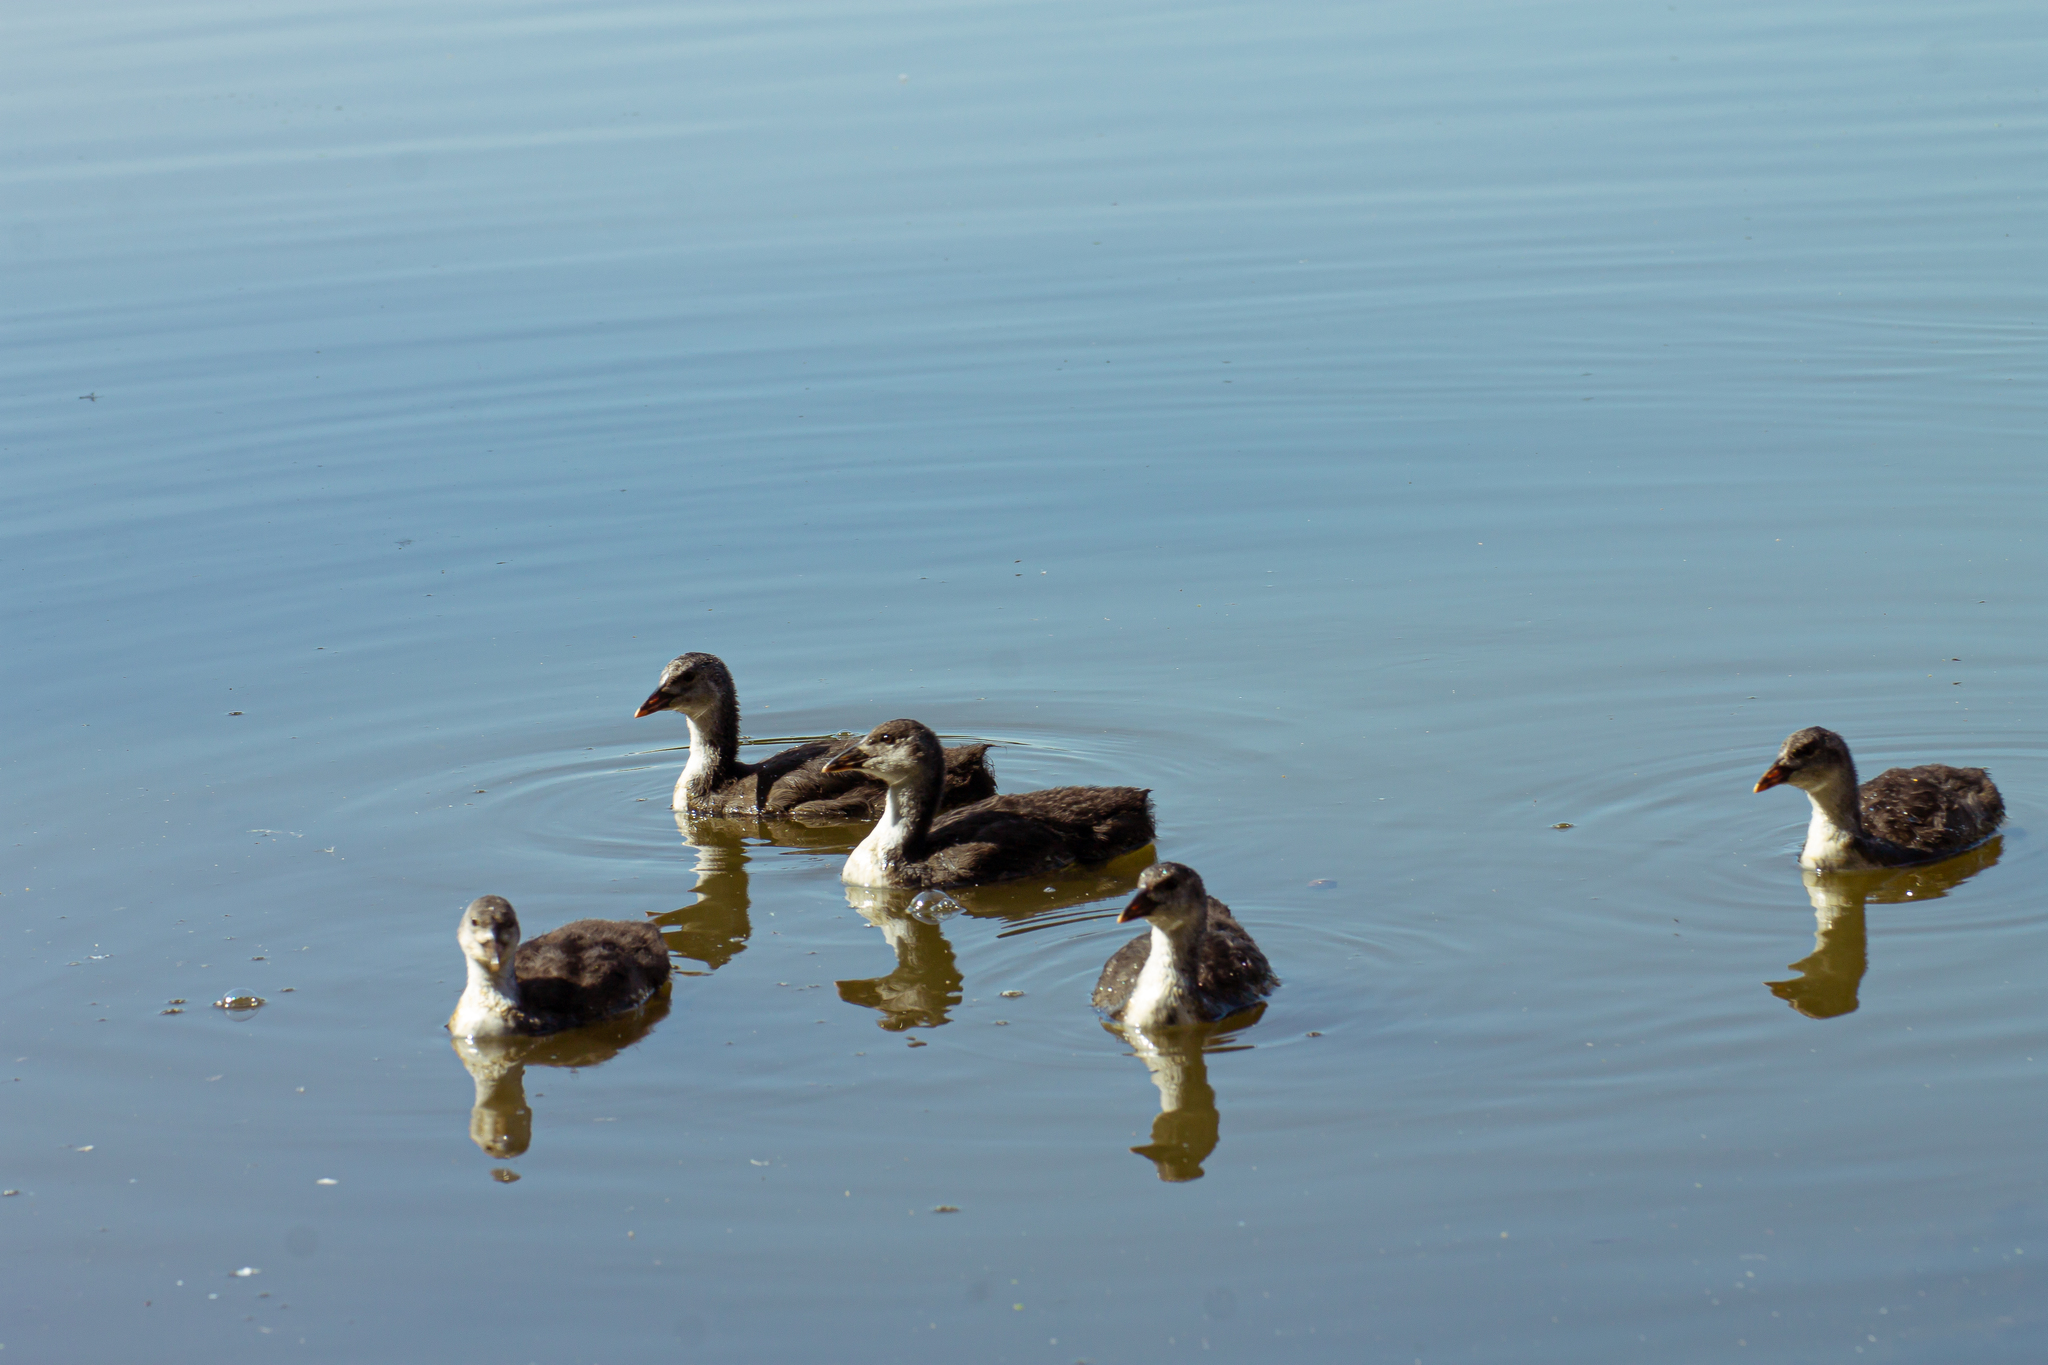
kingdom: Animalia
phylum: Chordata
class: Aves
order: Gruiformes
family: Rallidae
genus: Fulica
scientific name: Fulica atra
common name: Eurasian coot
